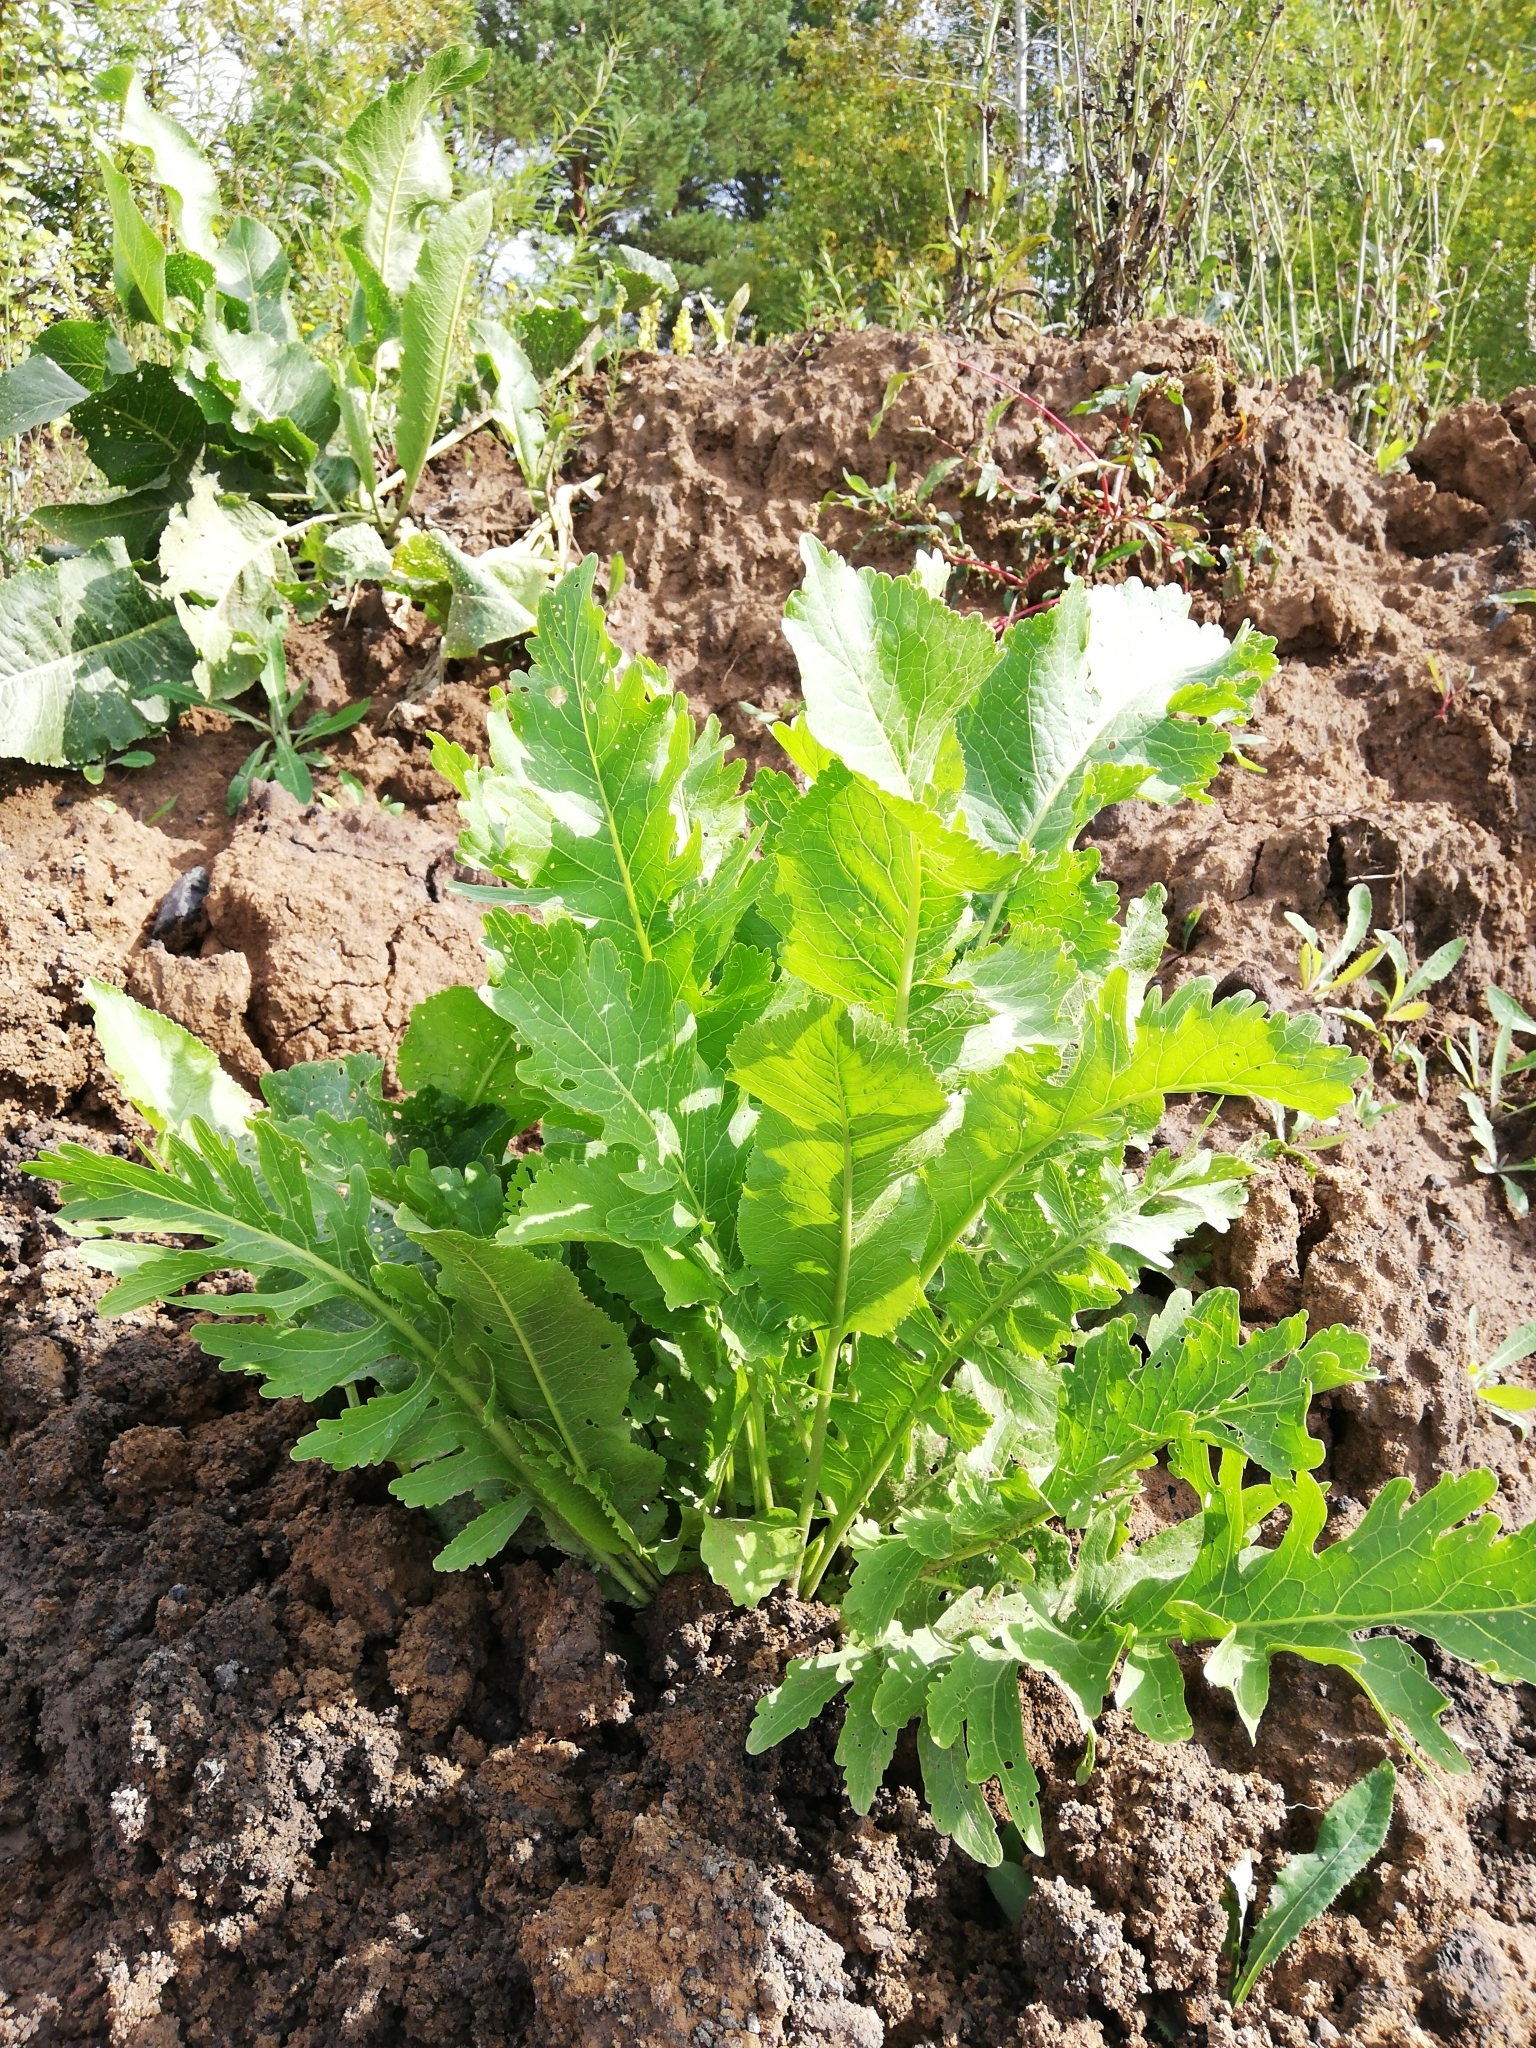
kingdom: Plantae
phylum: Tracheophyta
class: Magnoliopsida
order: Brassicales
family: Brassicaceae
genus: Armoracia
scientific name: Armoracia rusticana
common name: Horseradish
